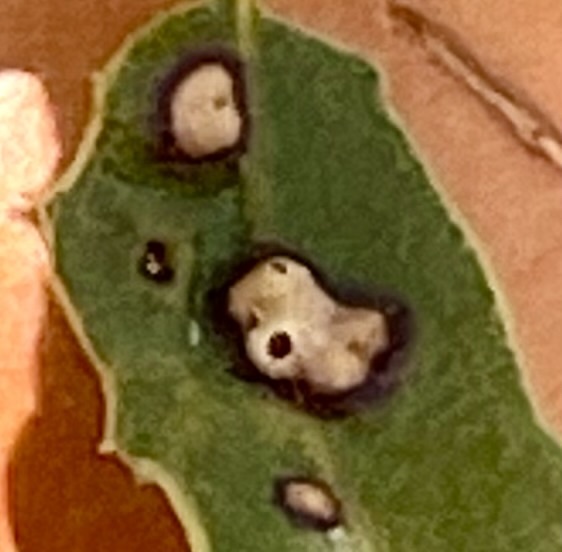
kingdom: Animalia
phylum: Arthropoda
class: Insecta
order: Hymenoptera
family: Cynipidae
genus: Neuroterus
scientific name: Neuroterus saltarius
